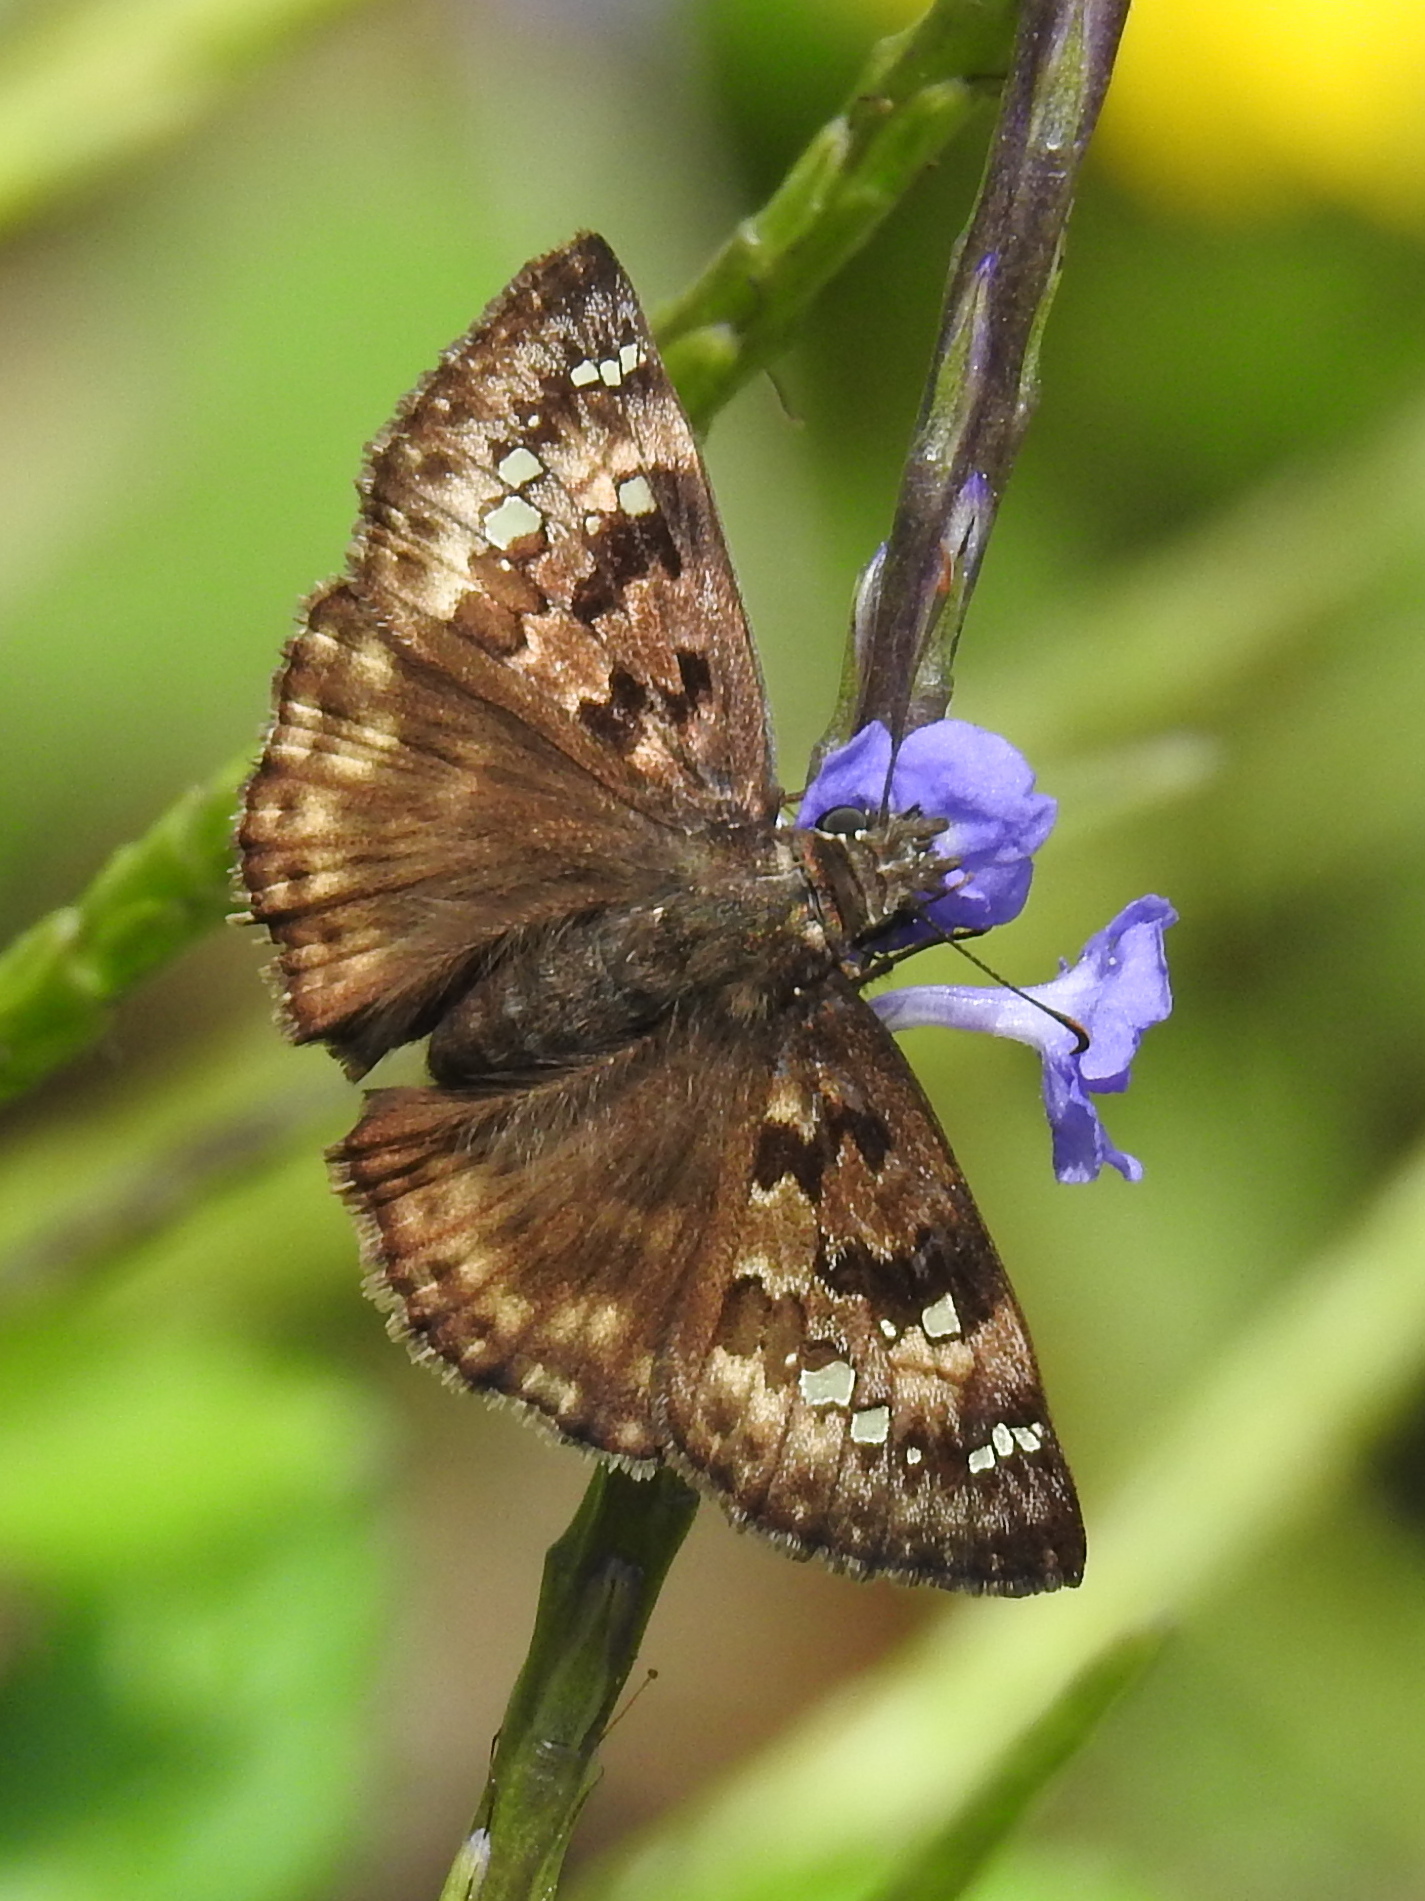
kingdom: Animalia
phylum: Arthropoda
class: Insecta
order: Lepidoptera
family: Hesperiidae
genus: Erynnis
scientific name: Erynnis horatius
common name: Horace's duskywing
